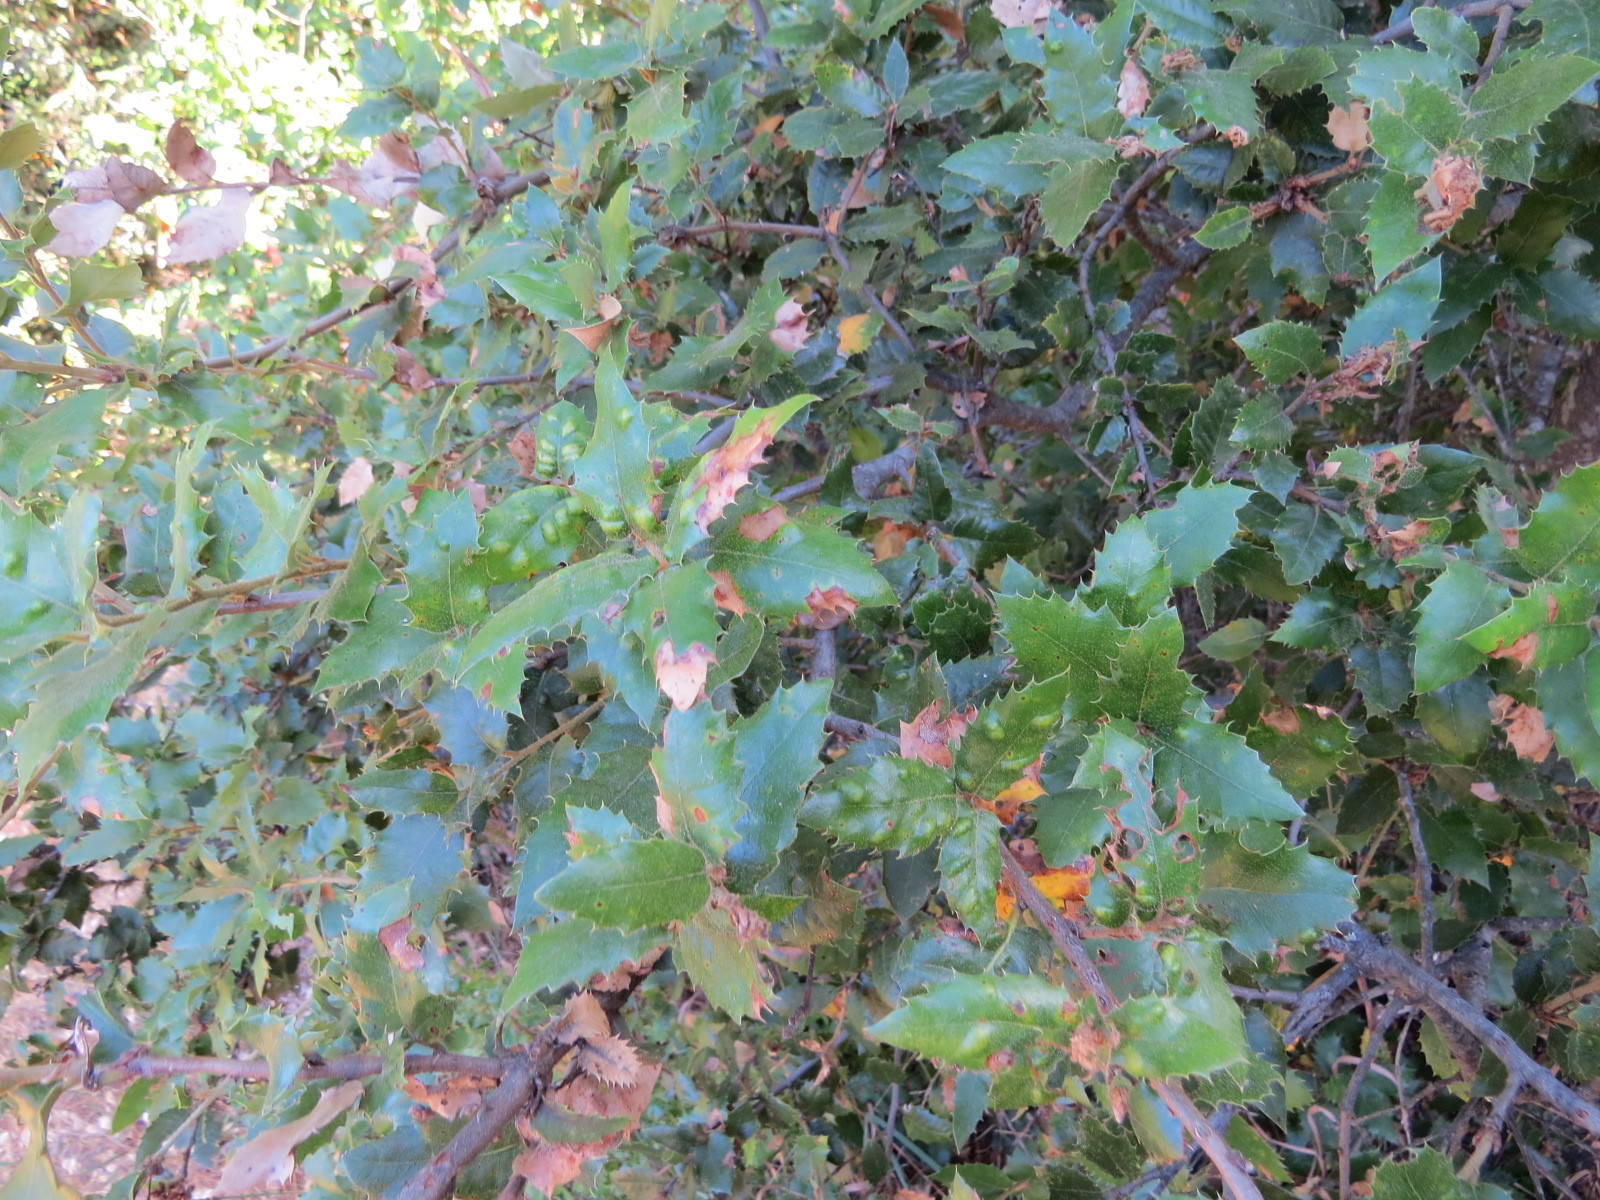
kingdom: Animalia
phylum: Arthropoda
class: Arachnida
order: Trombidiformes
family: Eriophyidae
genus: Aceria
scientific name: Aceria
